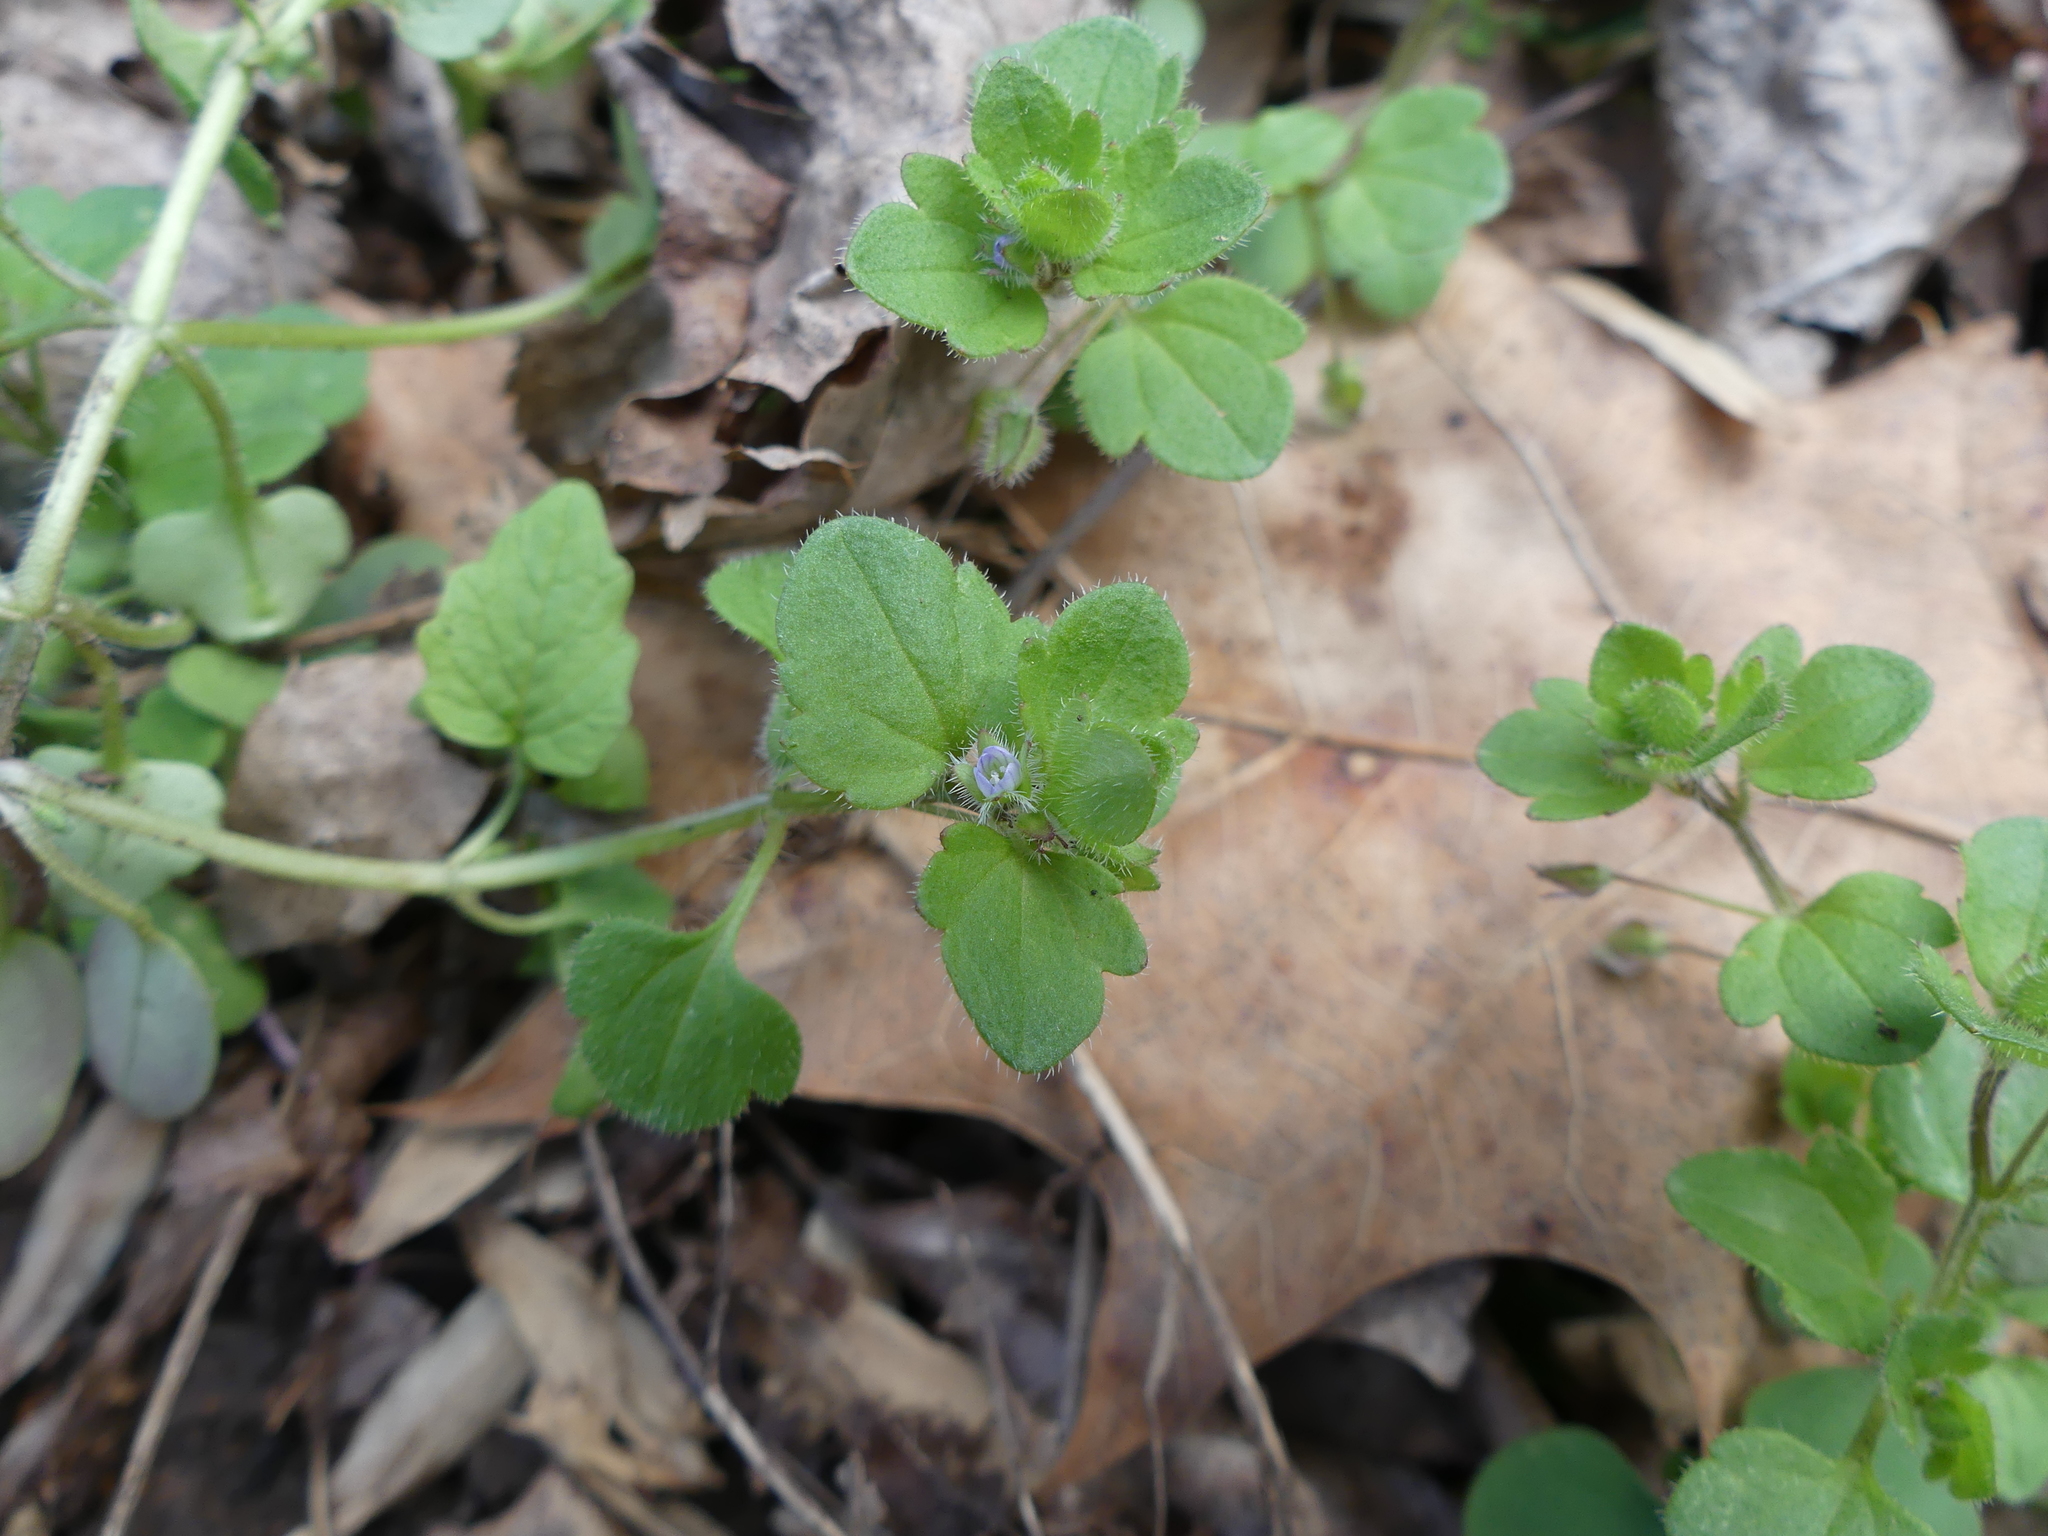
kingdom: Plantae
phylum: Tracheophyta
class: Magnoliopsida
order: Lamiales
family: Plantaginaceae
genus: Veronica
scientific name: Veronica hederifolia
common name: Ivy-leaved speedwell
